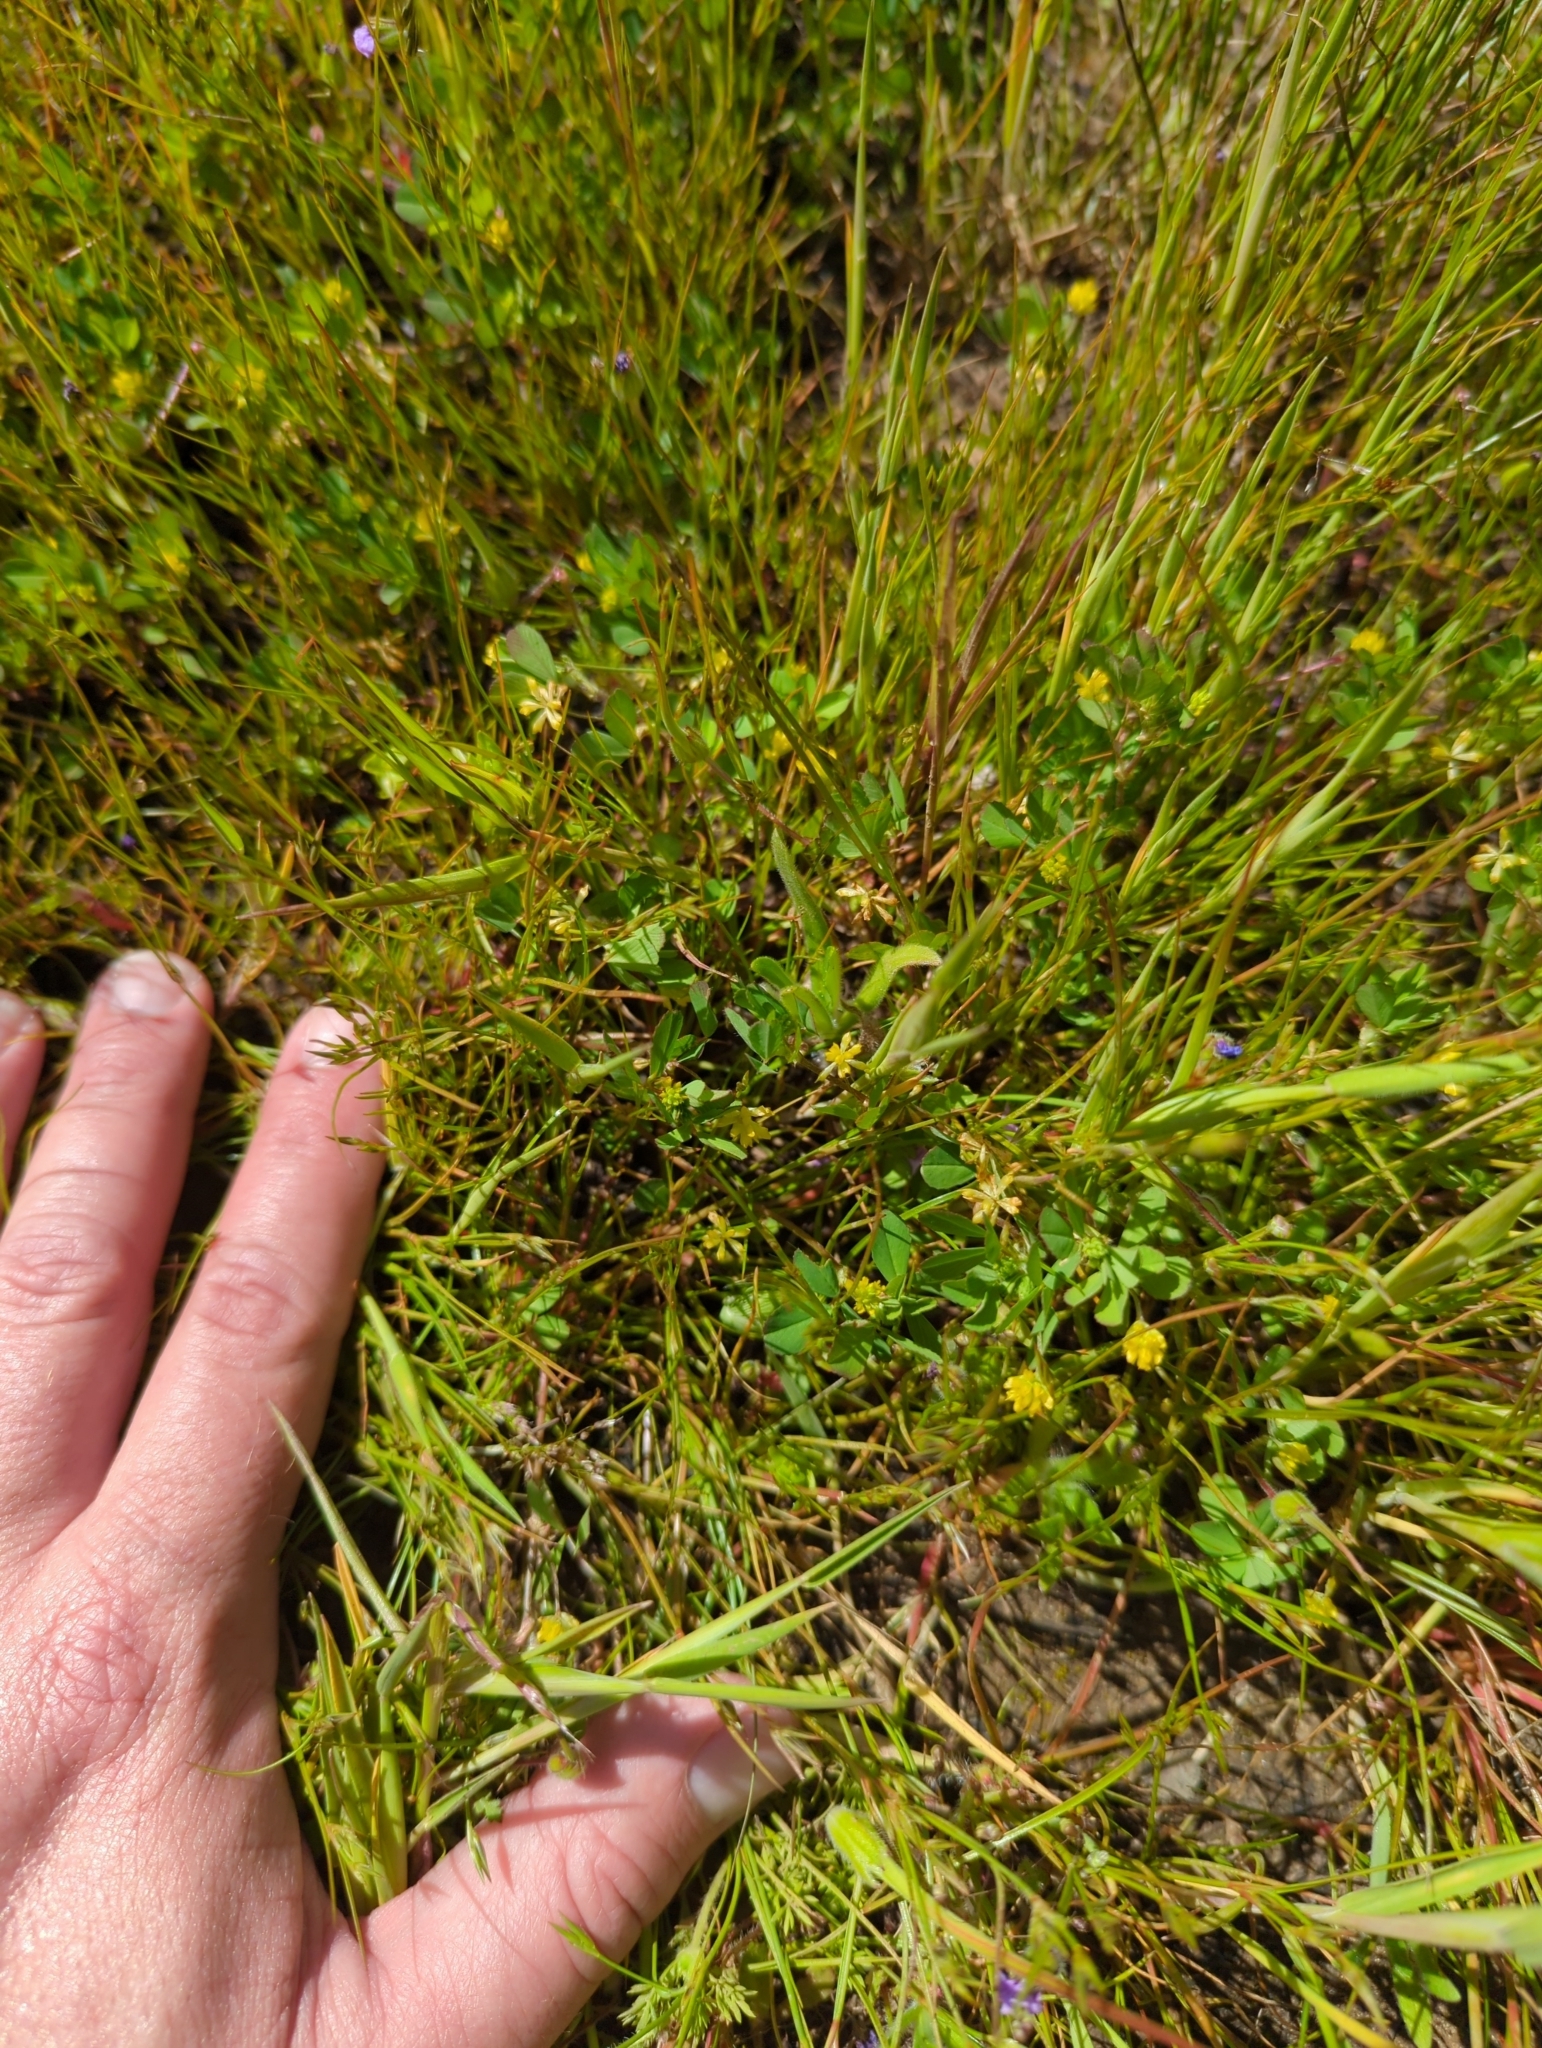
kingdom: Plantae
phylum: Tracheophyta
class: Magnoliopsida
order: Fabales
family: Fabaceae
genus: Trifolium
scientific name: Trifolium dubium
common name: Suckling clover
